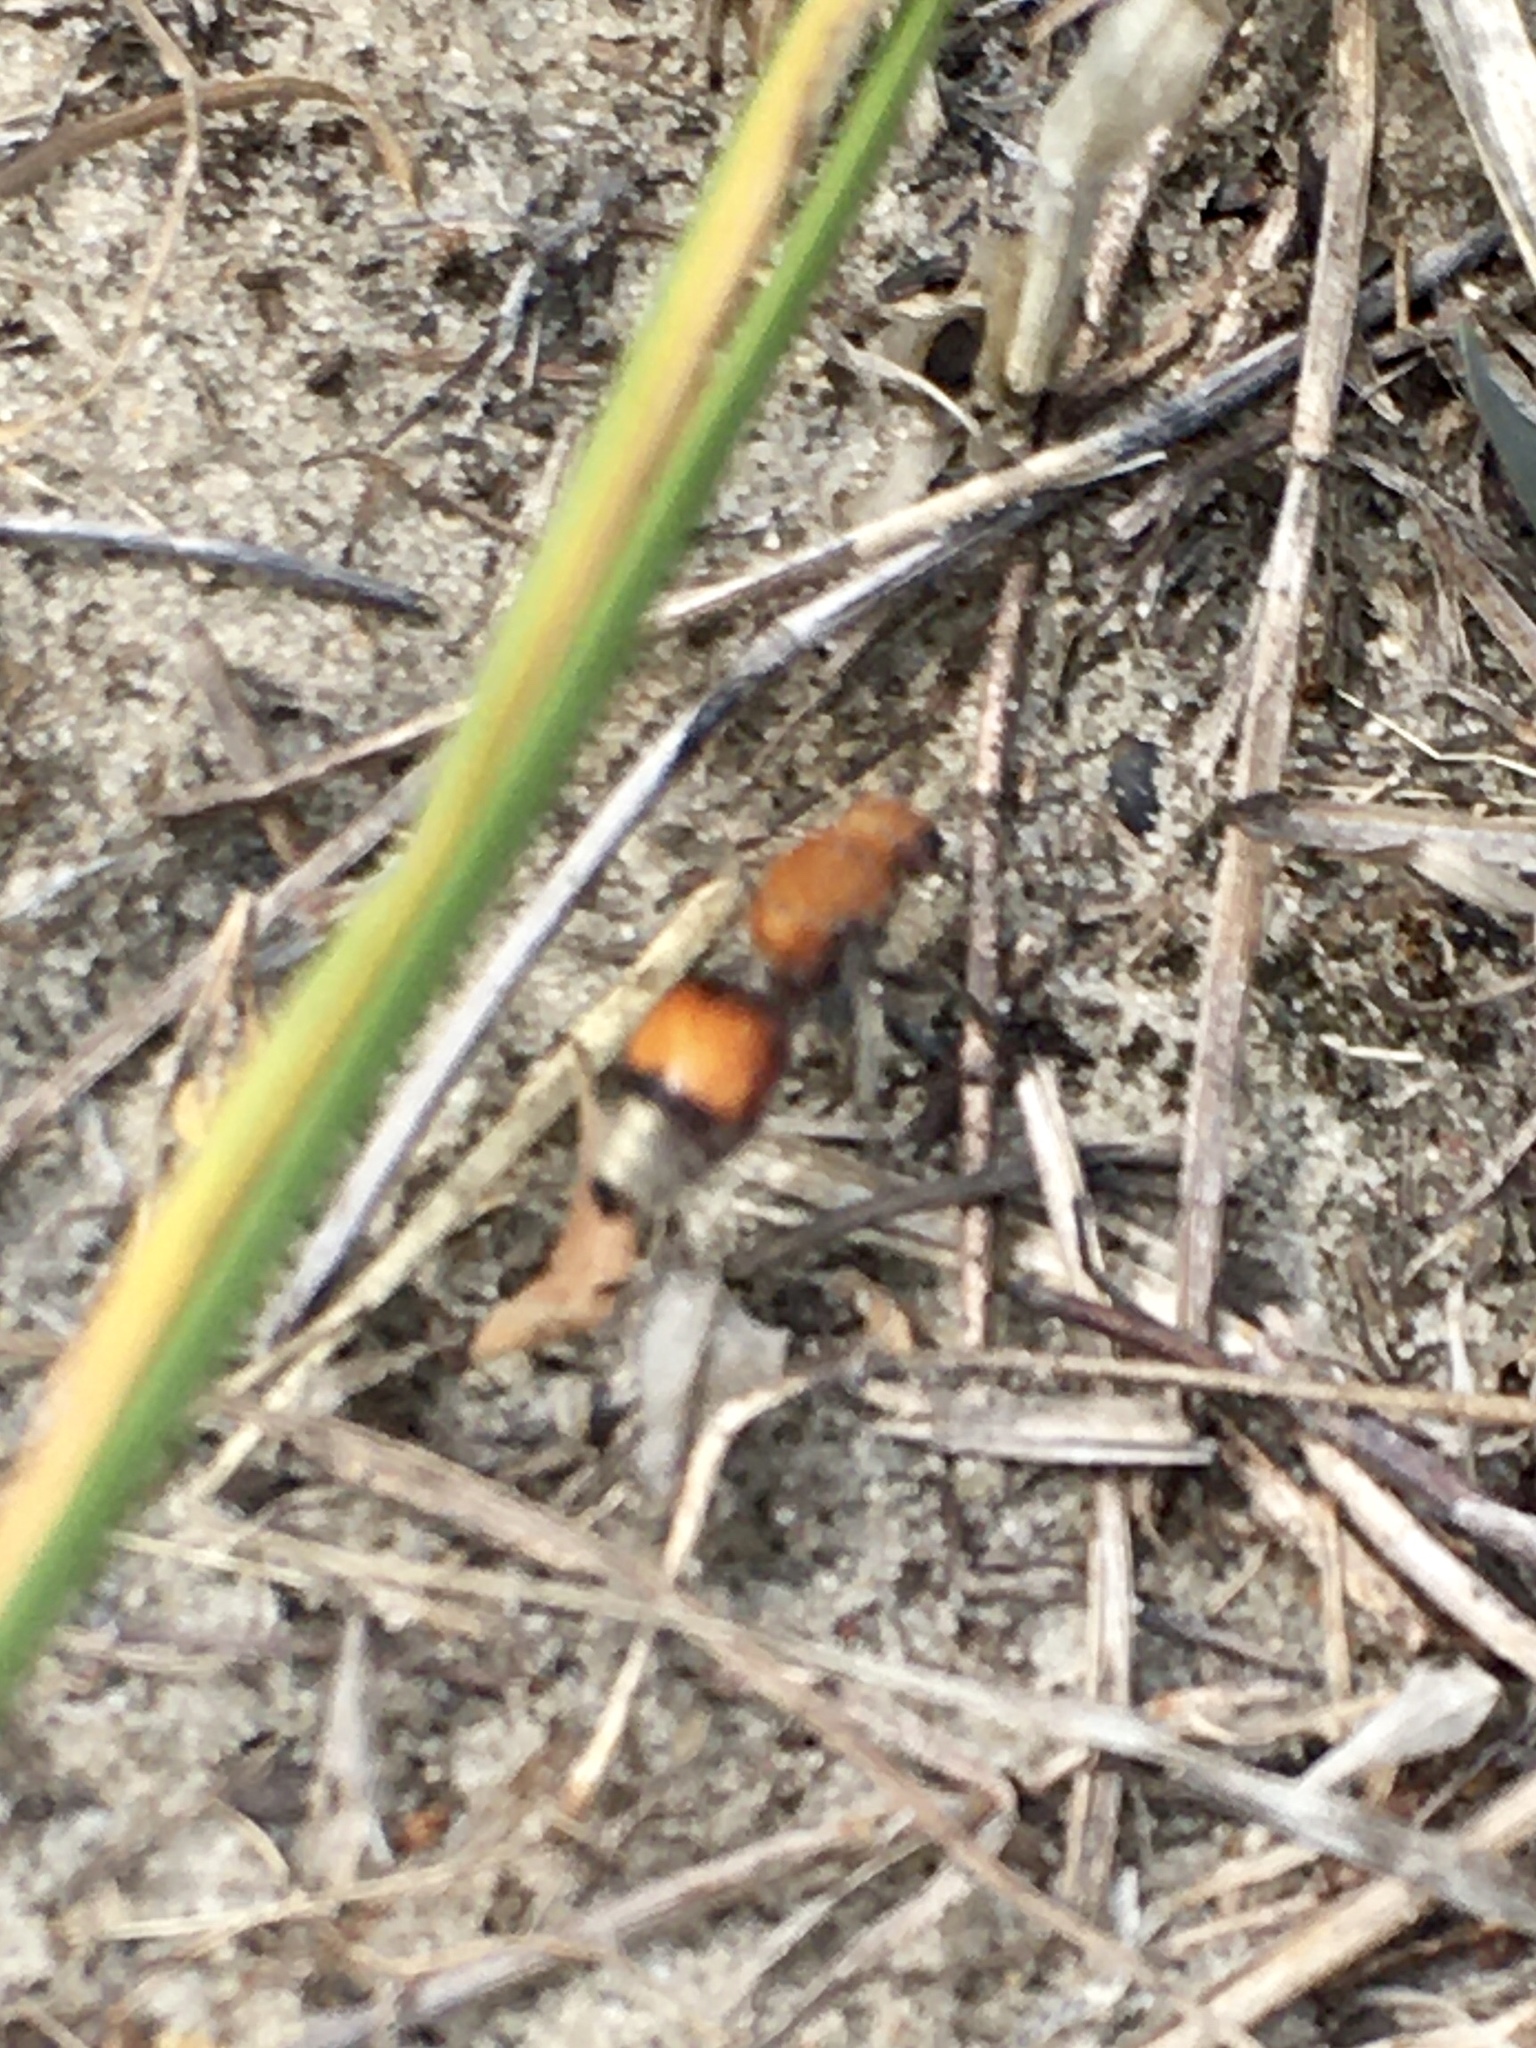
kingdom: Animalia
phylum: Arthropoda
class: Insecta
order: Hymenoptera
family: Mutillidae
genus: Dasymutilla
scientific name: Dasymutilla
